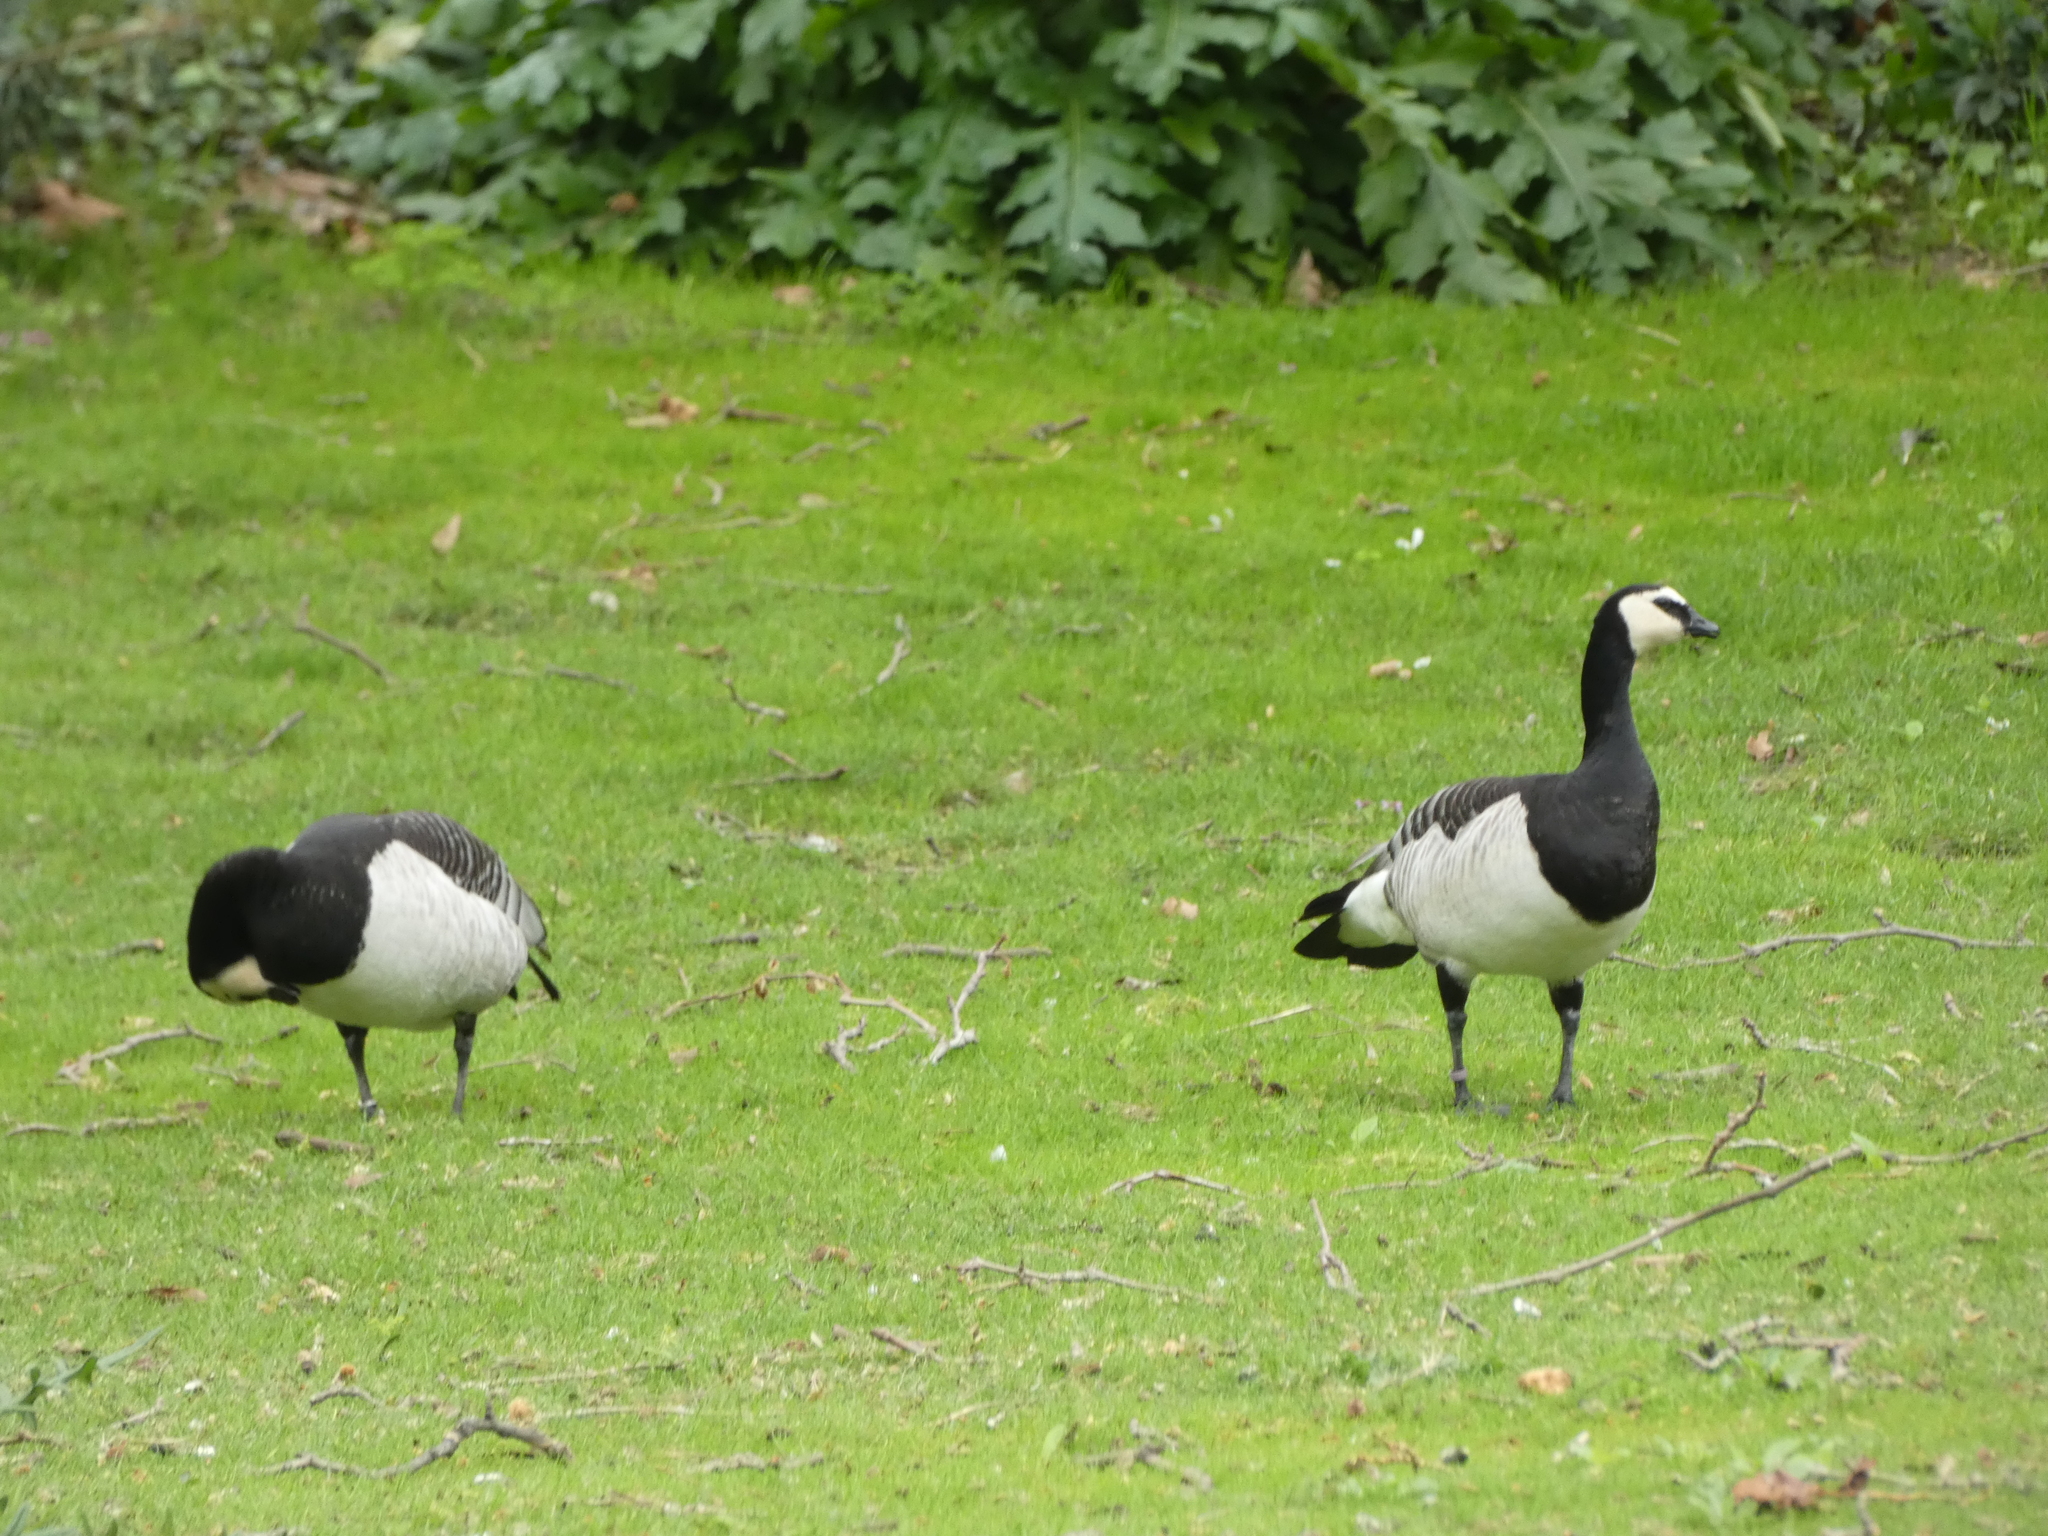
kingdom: Animalia
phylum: Chordata
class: Aves
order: Anseriformes
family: Anatidae
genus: Branta
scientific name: Branta leucopsis
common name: Barnacle goose
